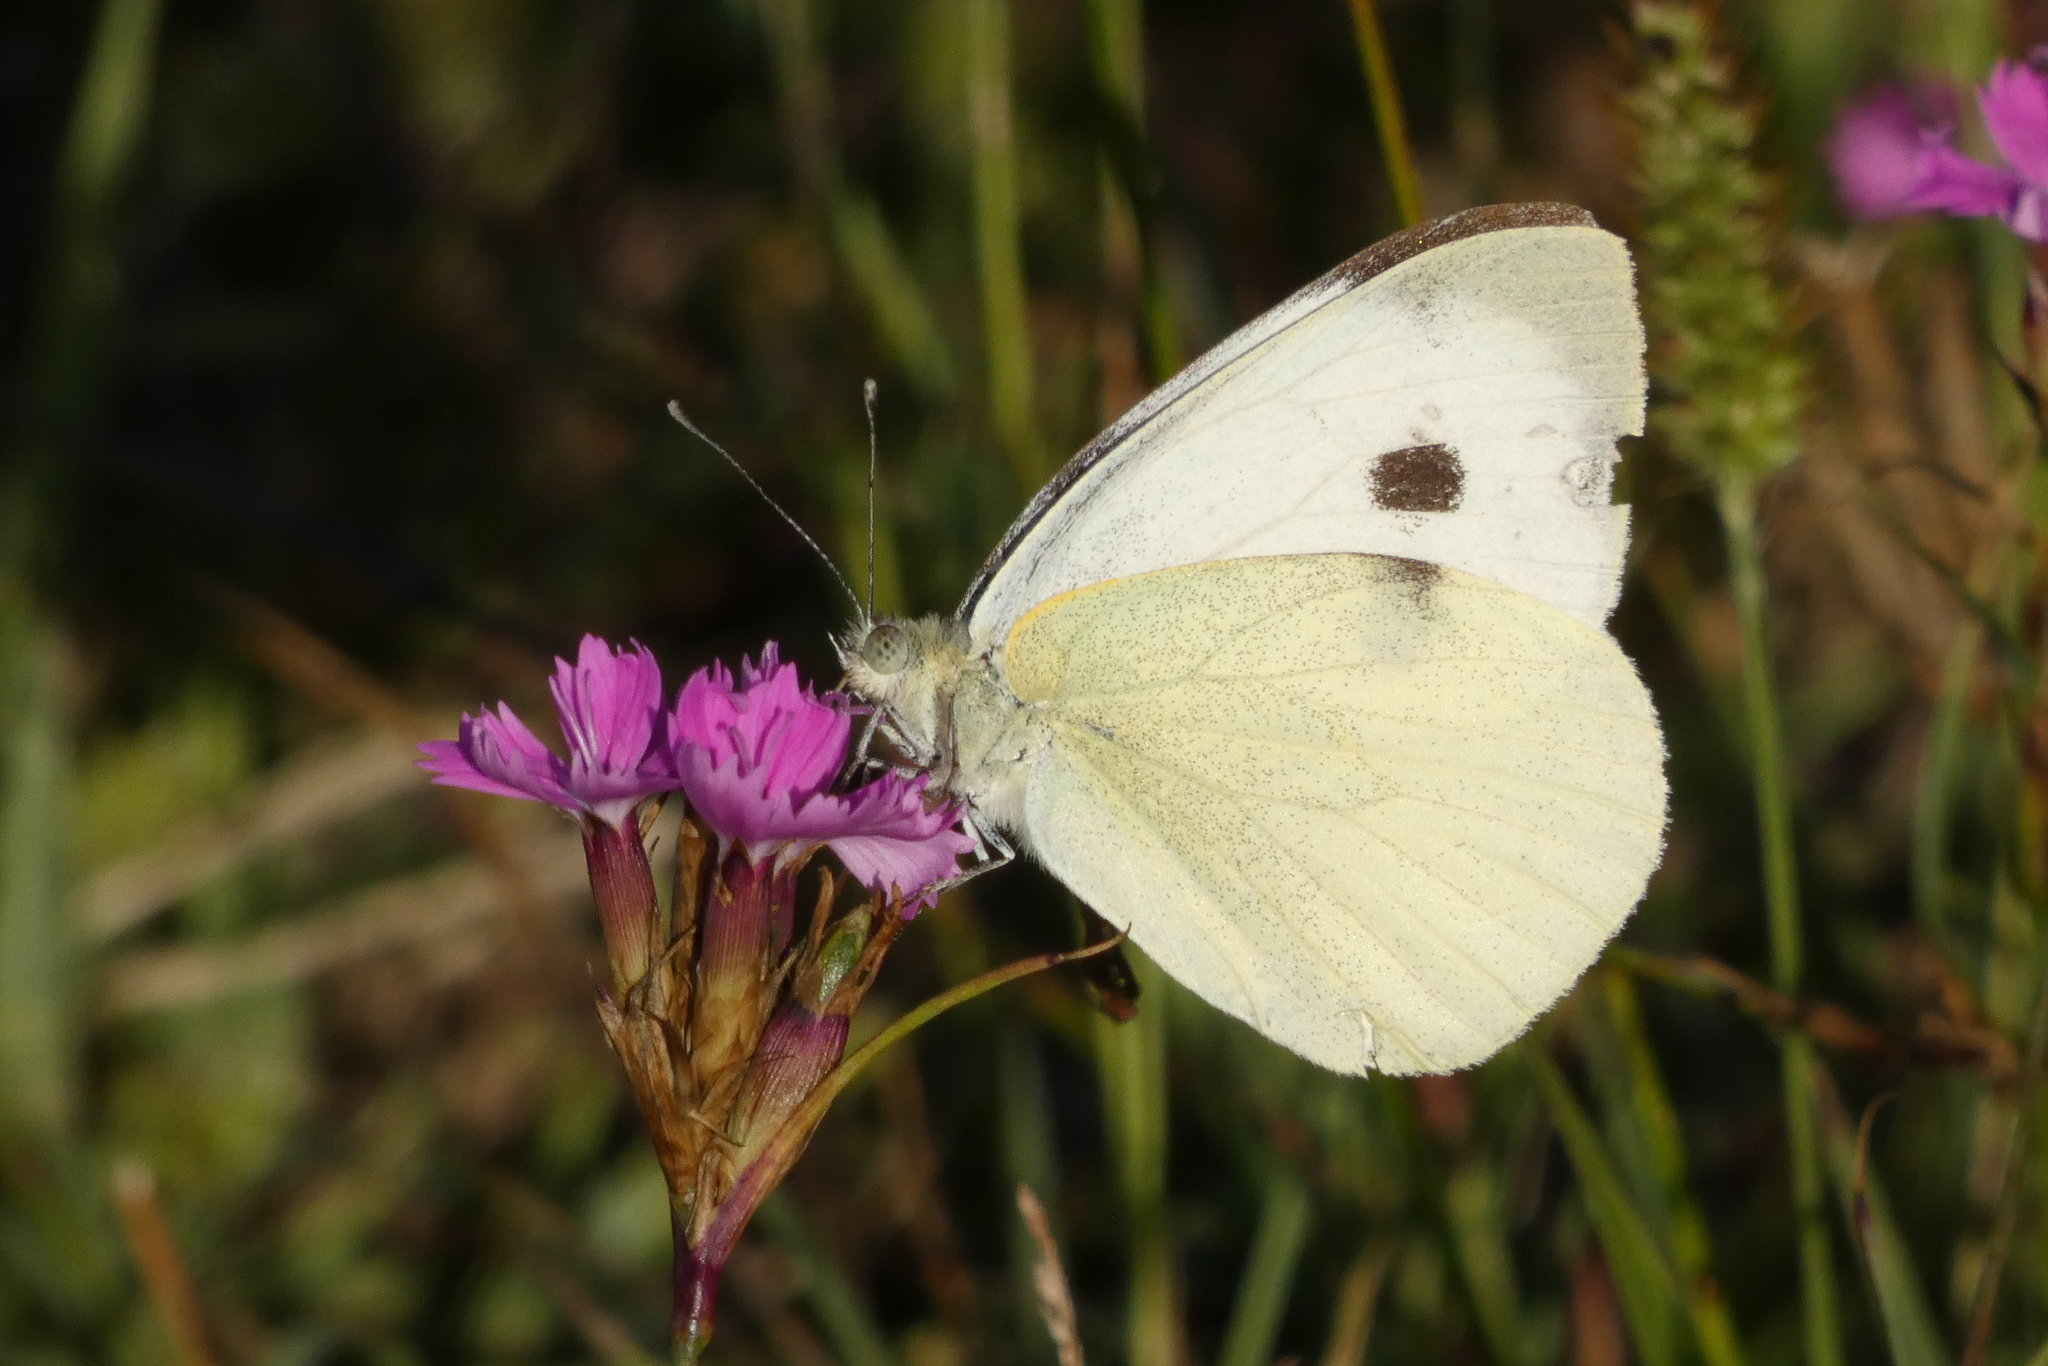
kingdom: Animalia
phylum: Arthropoda
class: Insecta
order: Lepidoptera
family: Pieridae
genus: Pieris
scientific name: Pieris brassicae
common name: Large white
